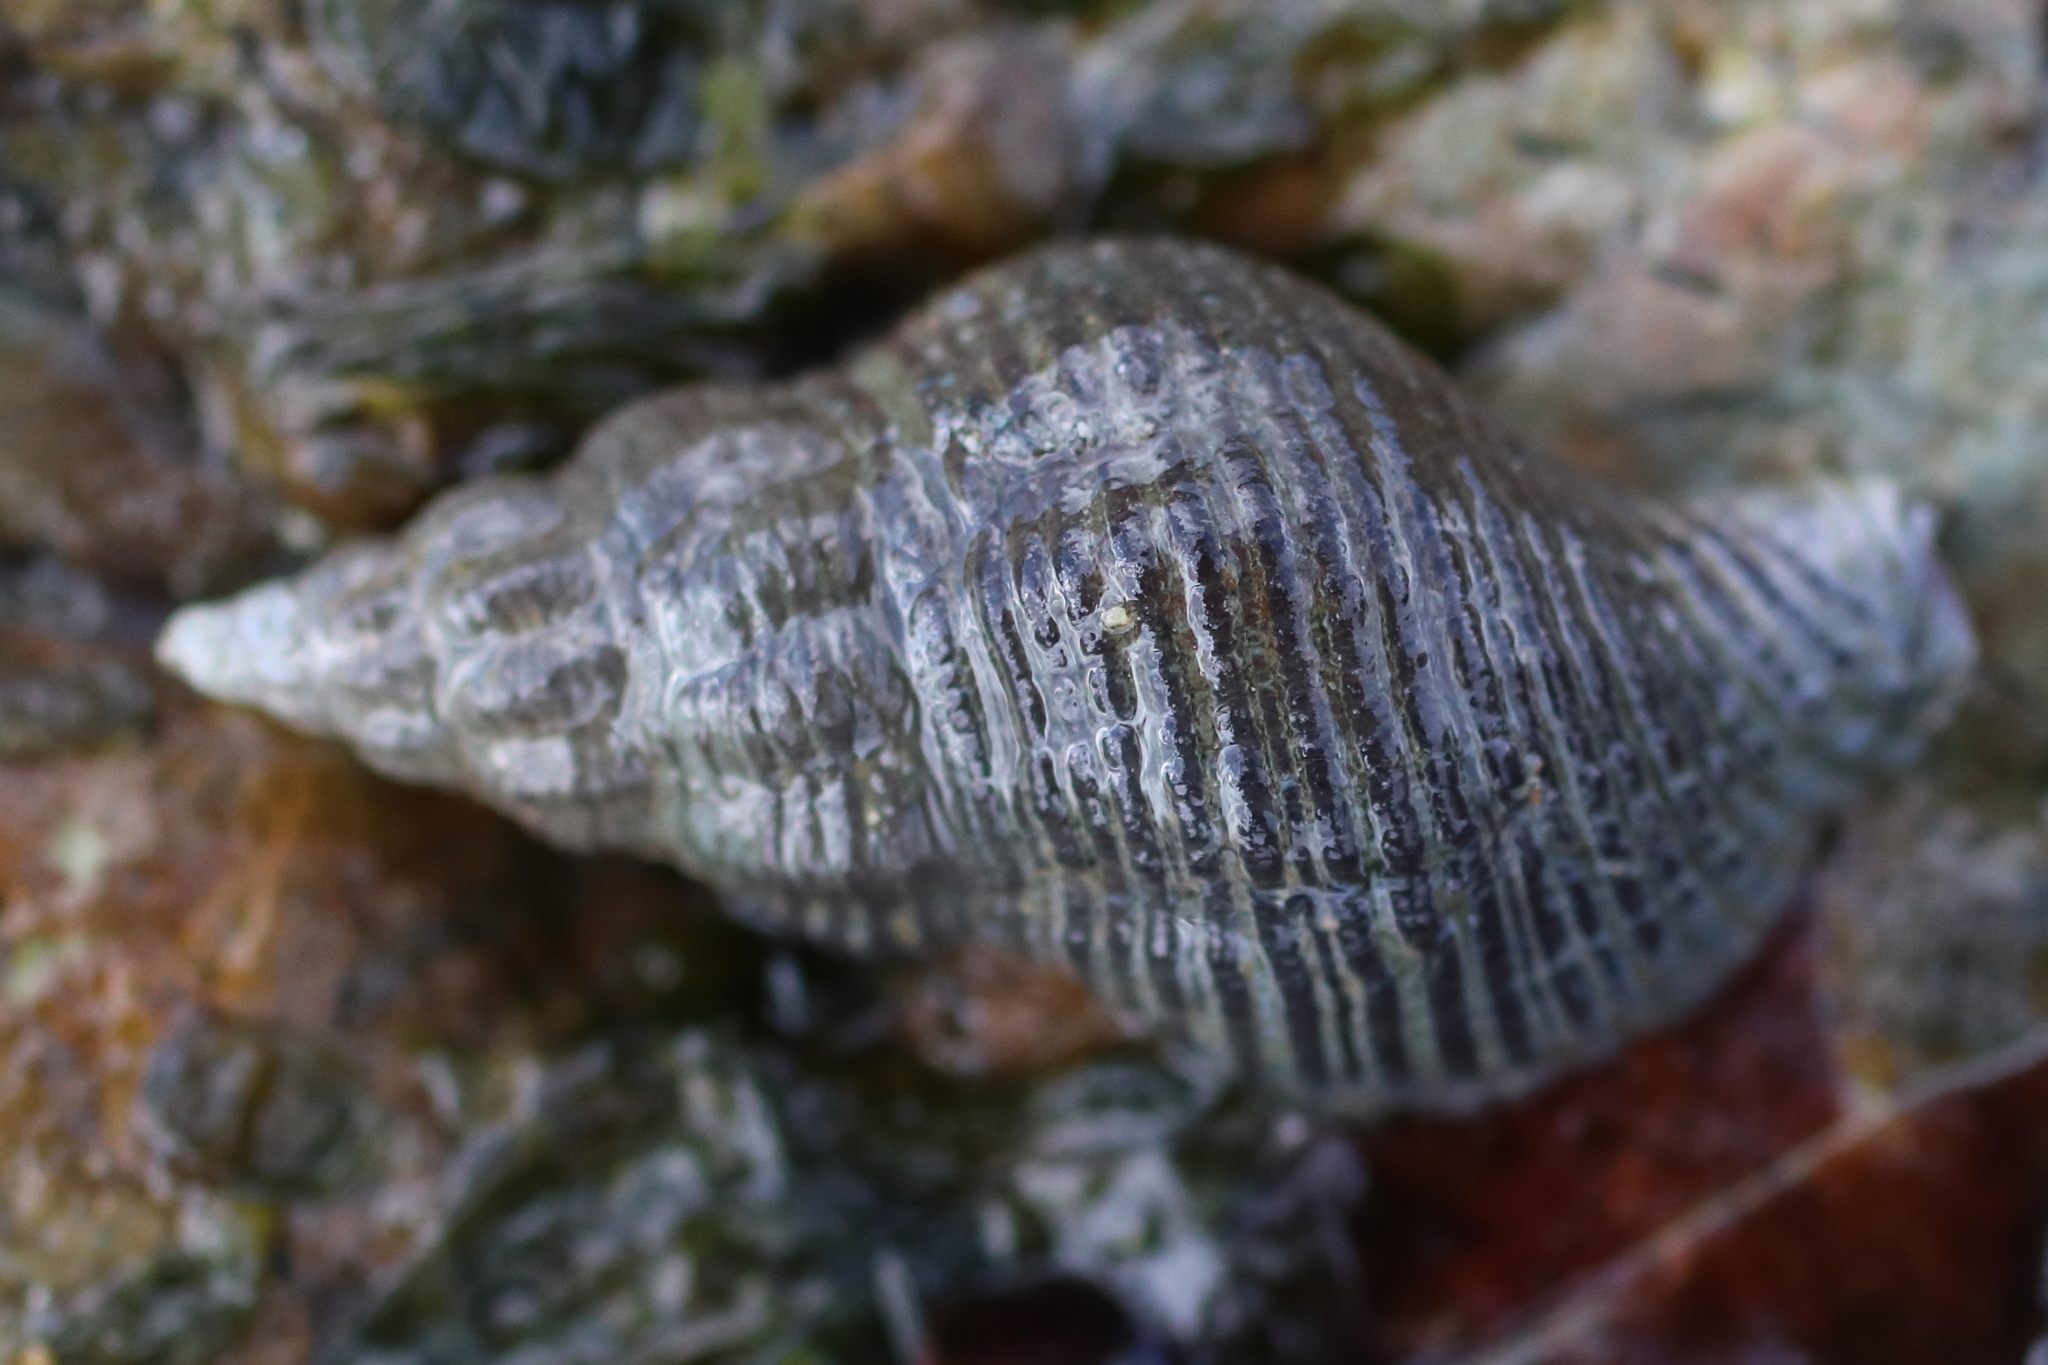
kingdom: Animalia
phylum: Mollusca
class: Gastropoda
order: Neogastropoda
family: Tudiclidae
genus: Lirabuccinum
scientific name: Lirabuccinum dirum
